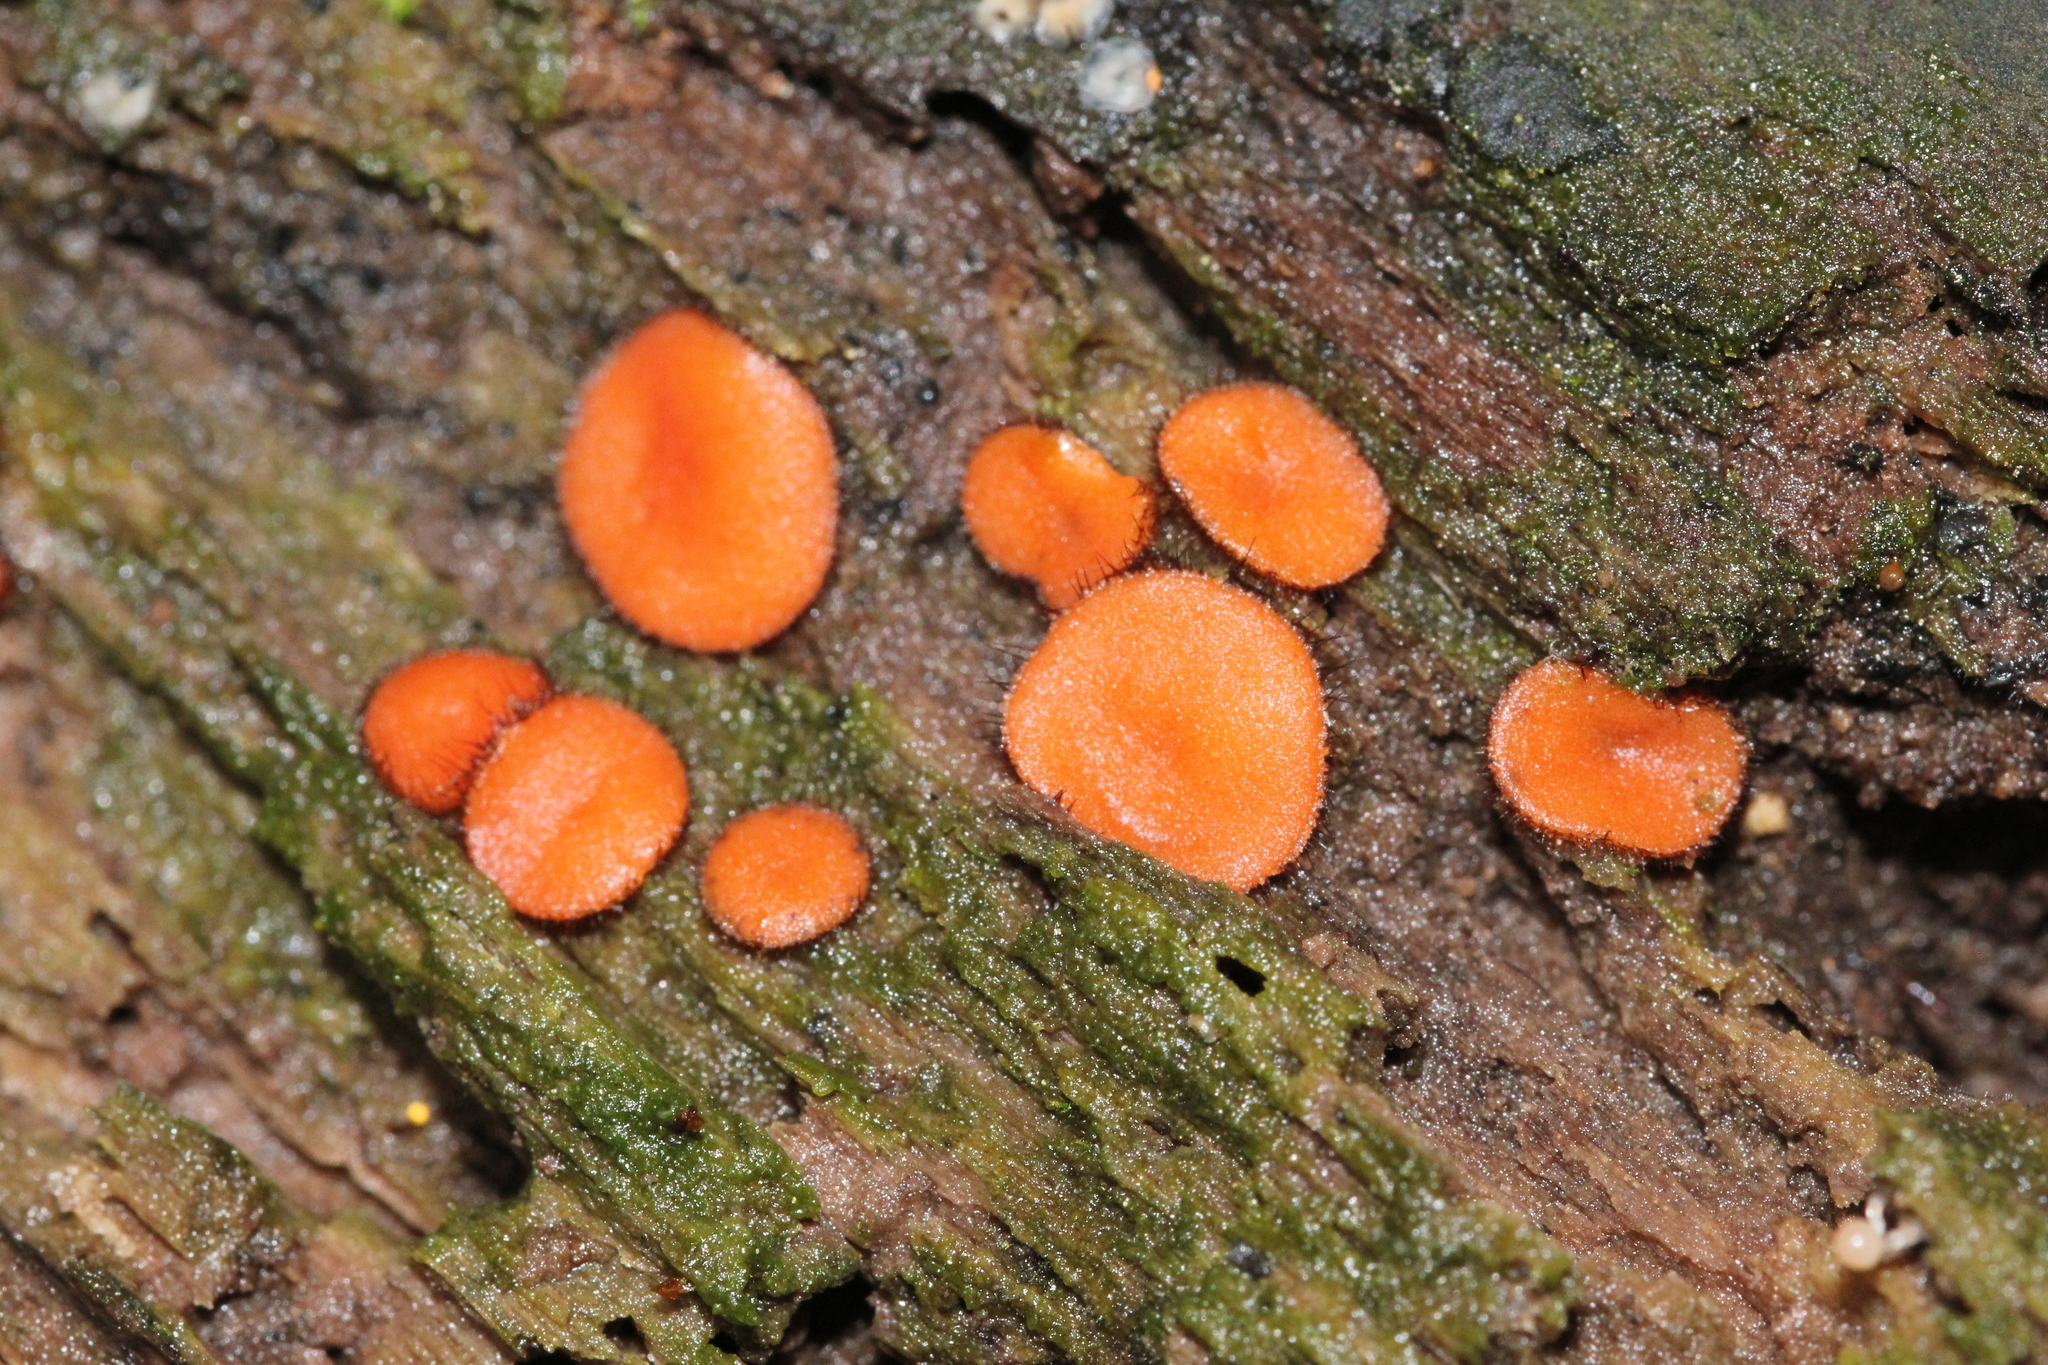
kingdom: Fungi
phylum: Ascomycota
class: Pezizomycetes
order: Pezizales
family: Pyronemataceae
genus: Scutellinia
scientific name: Scutellinia
